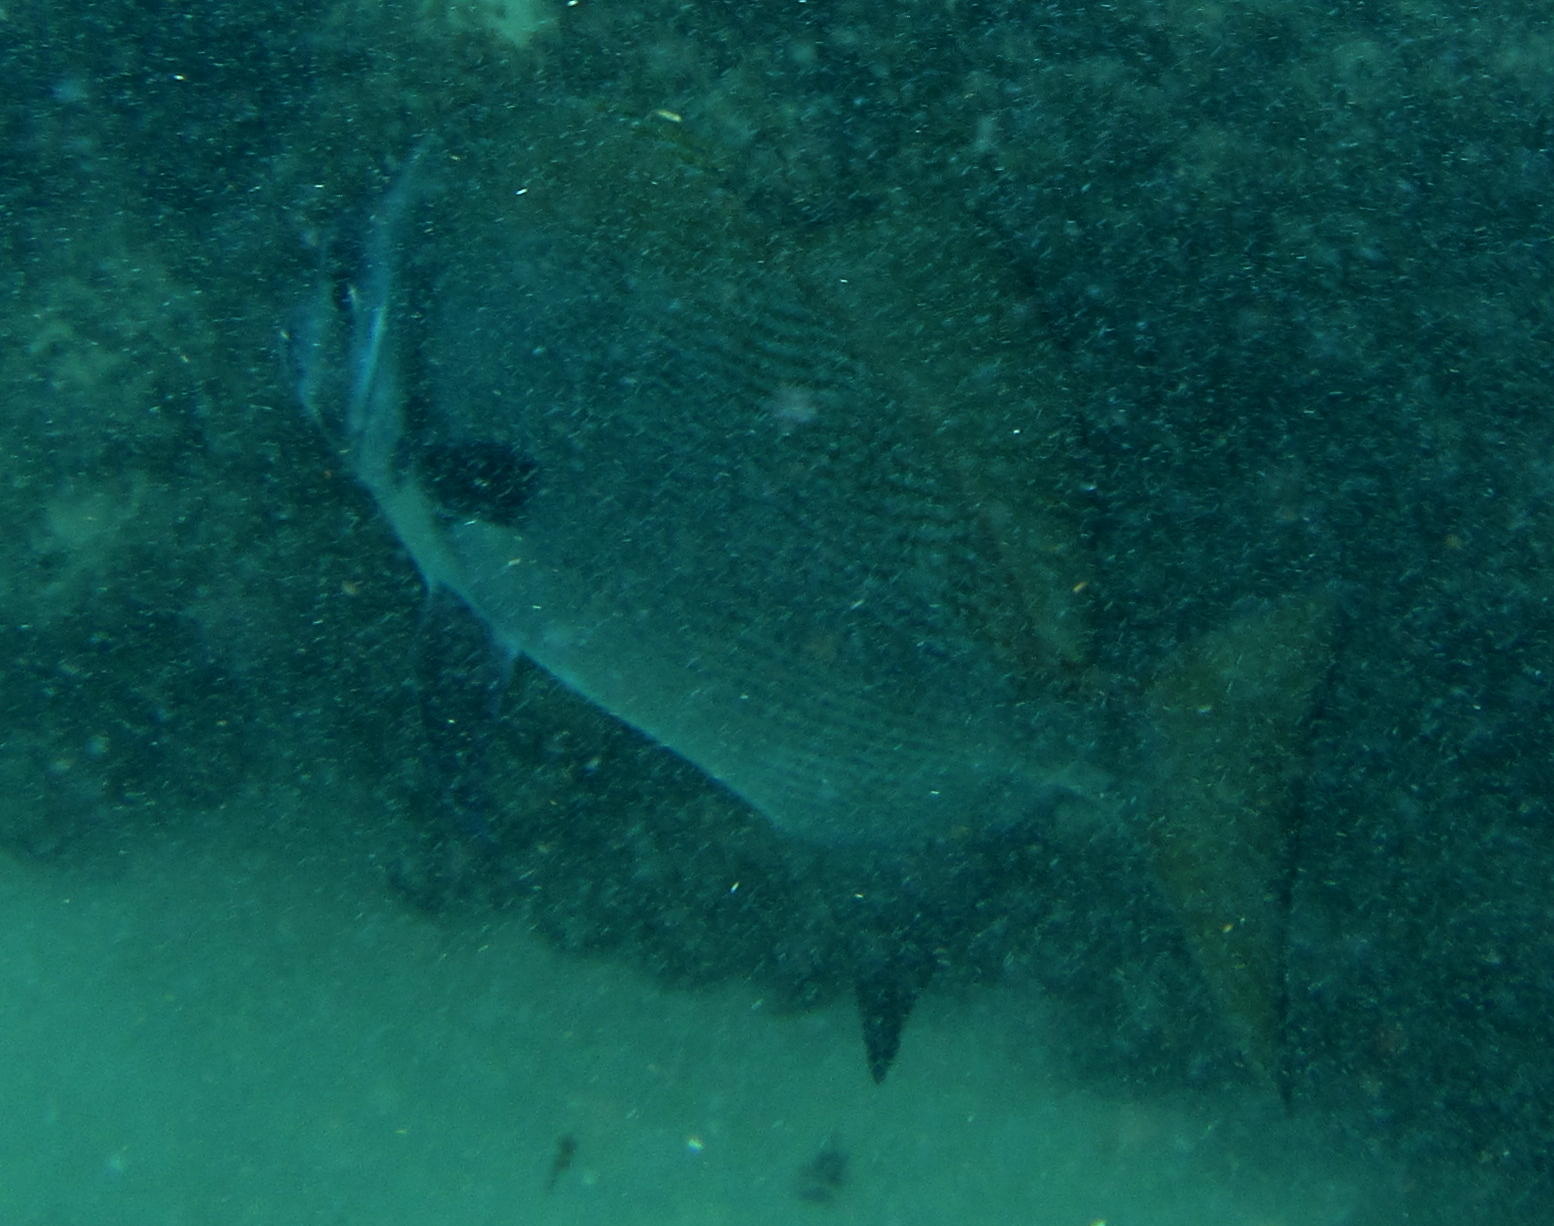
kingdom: Animalia
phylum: Chordata
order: Perciformes
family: Ephippidae
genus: Tripterodon
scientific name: Tripterodon orbis
